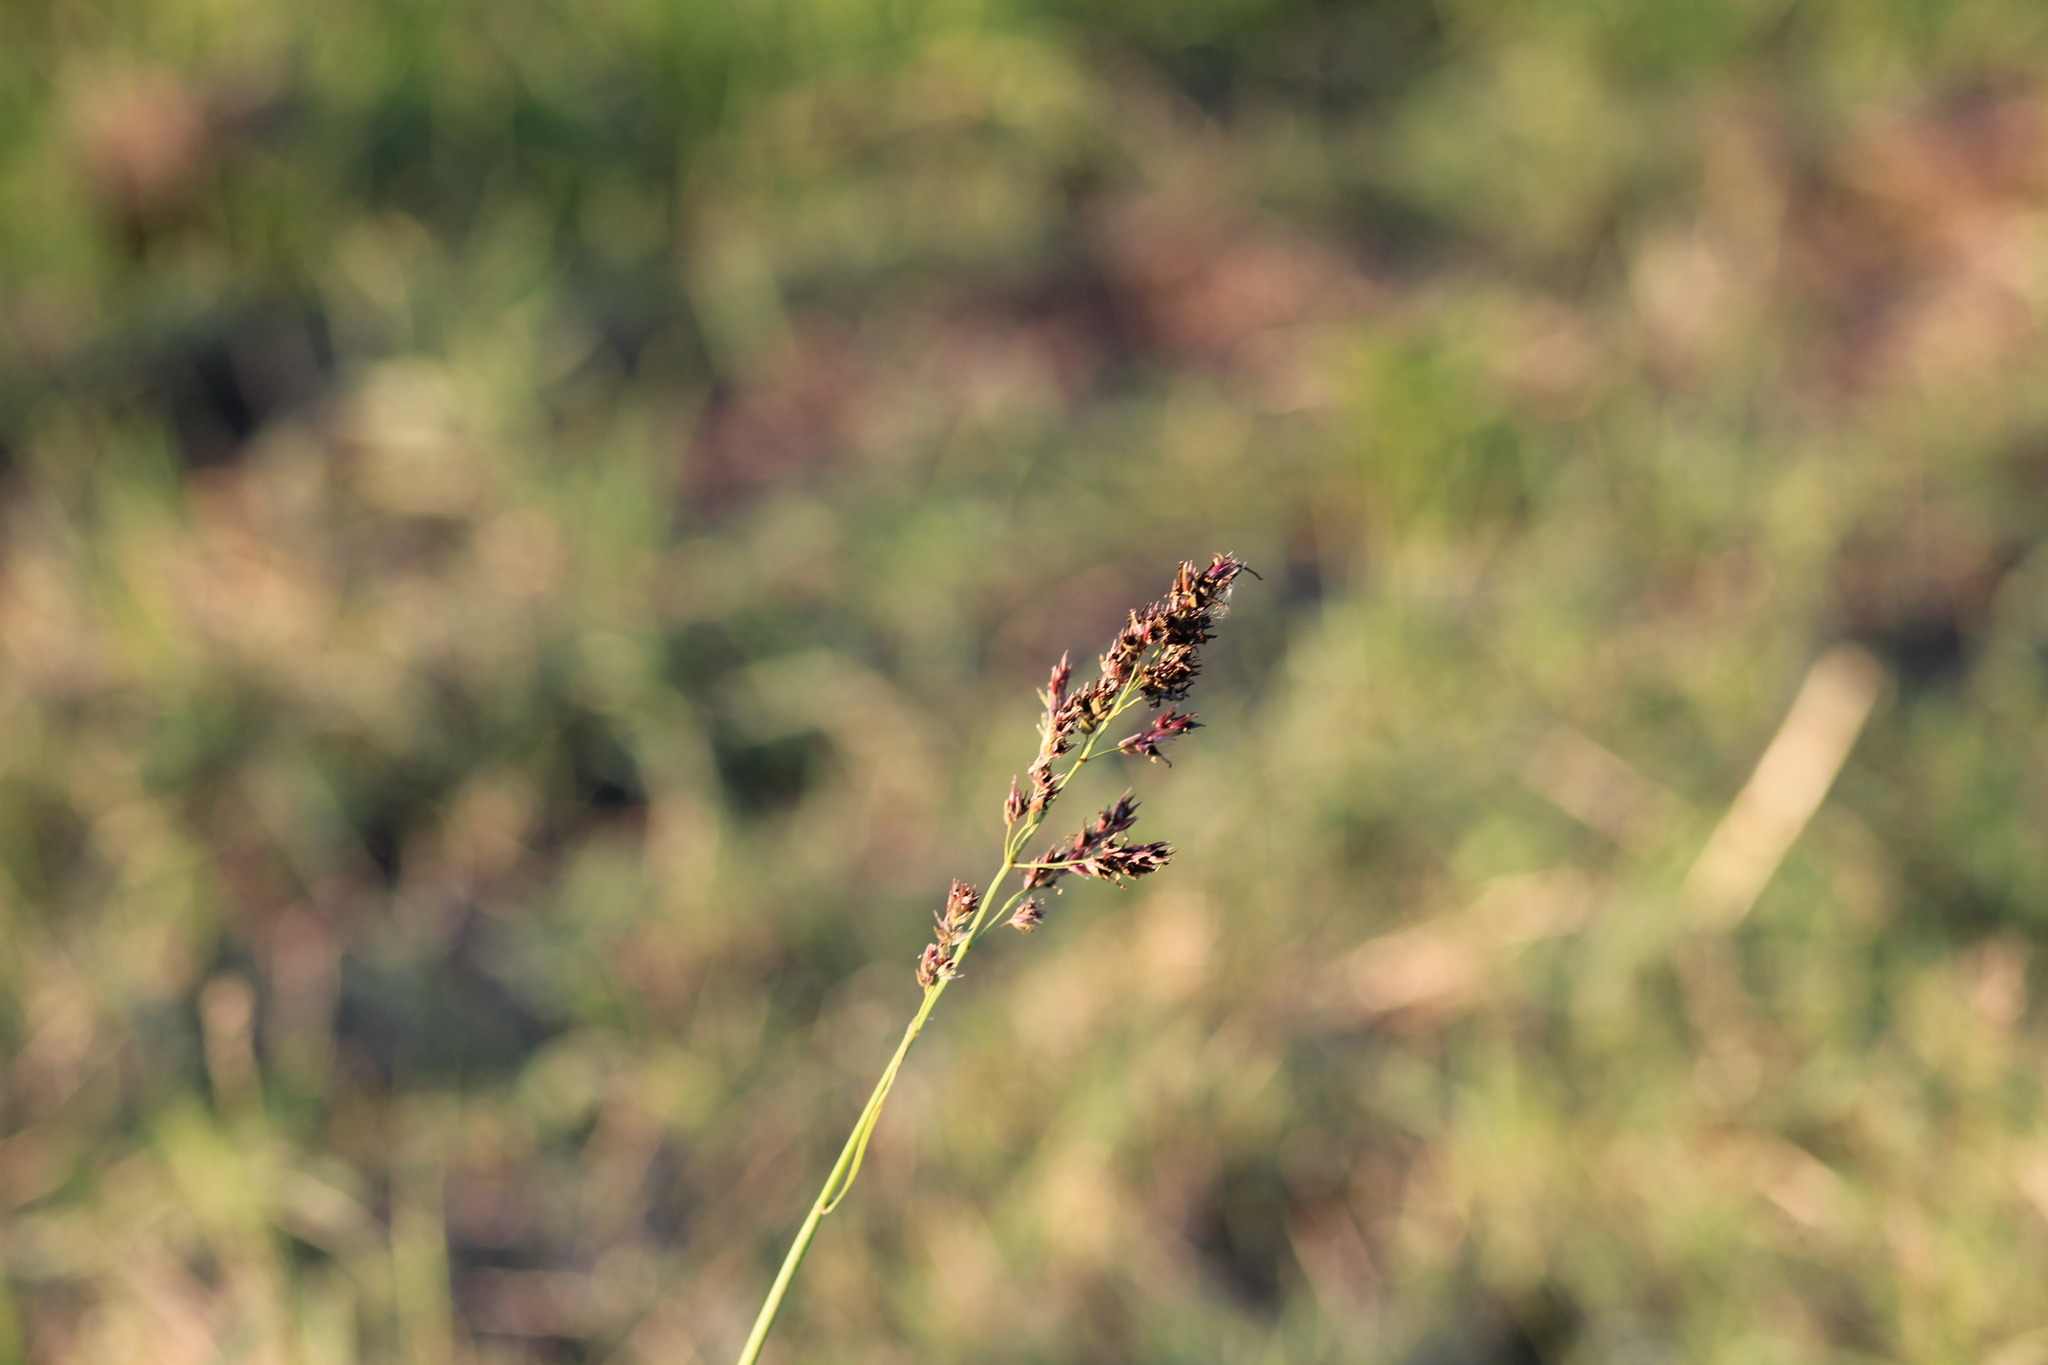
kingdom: Plantae
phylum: Tracheophyta
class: Liliopsida
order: Poales
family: Poaceae
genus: Sorghum
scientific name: Sorghum halepense
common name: Johnson-grass
